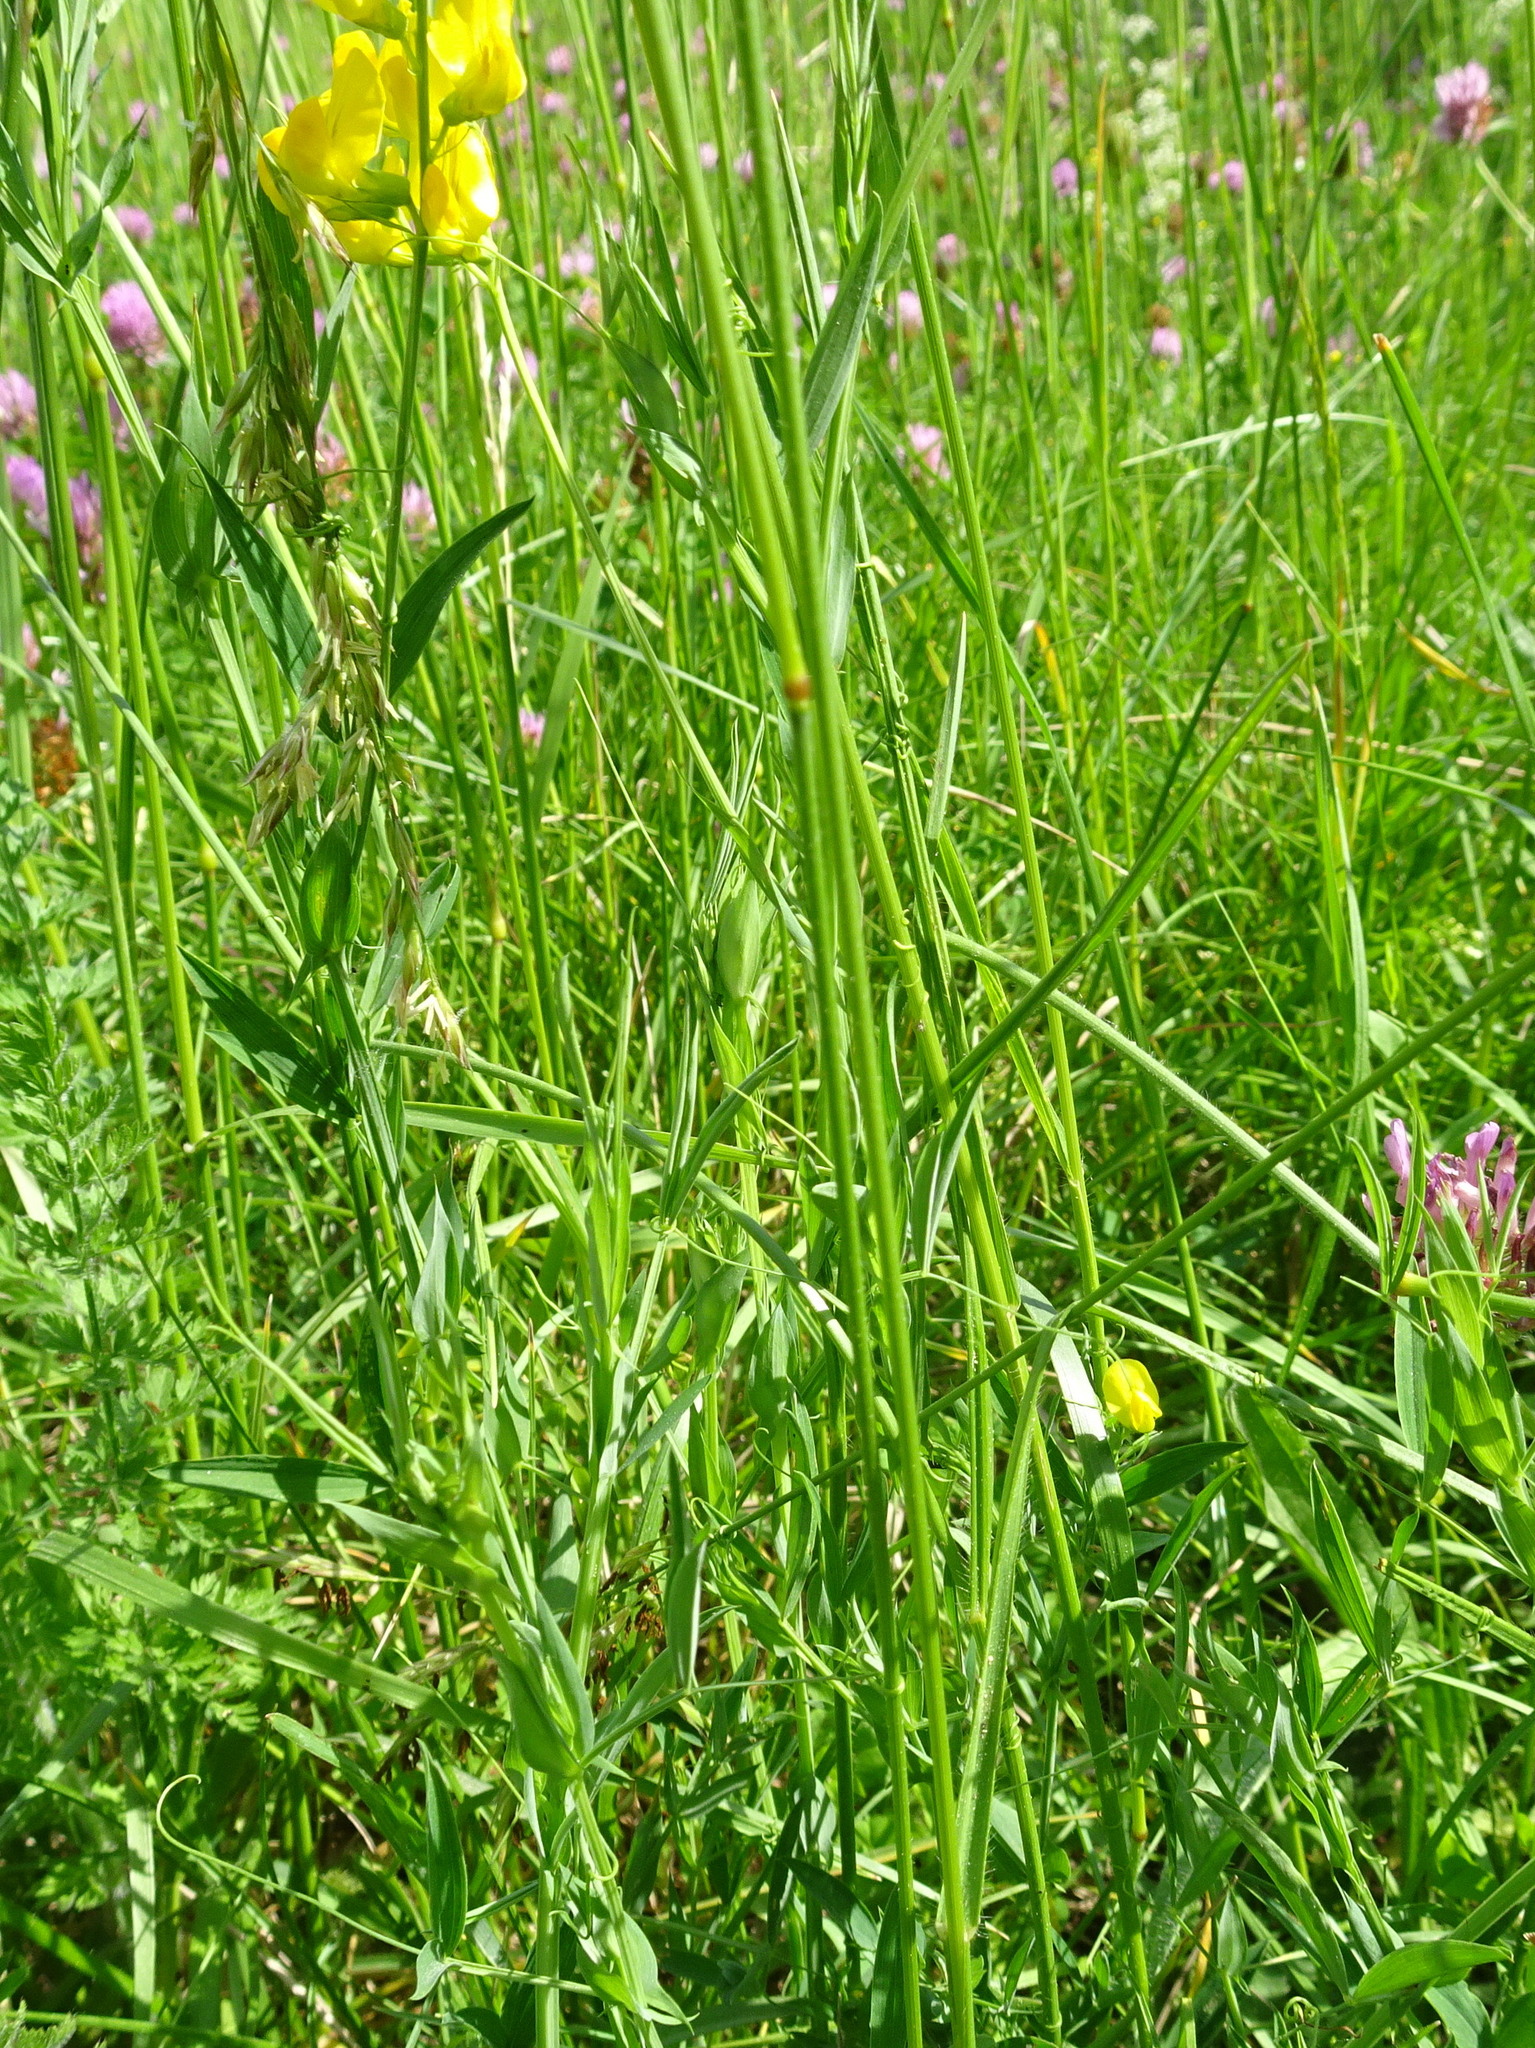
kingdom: Plantae
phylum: Tracheophyta
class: Magnoliopsida
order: Fabales
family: Fabaceae
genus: Lathyrus
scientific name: Lathyrus pratensis
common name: Meadow vetchling
